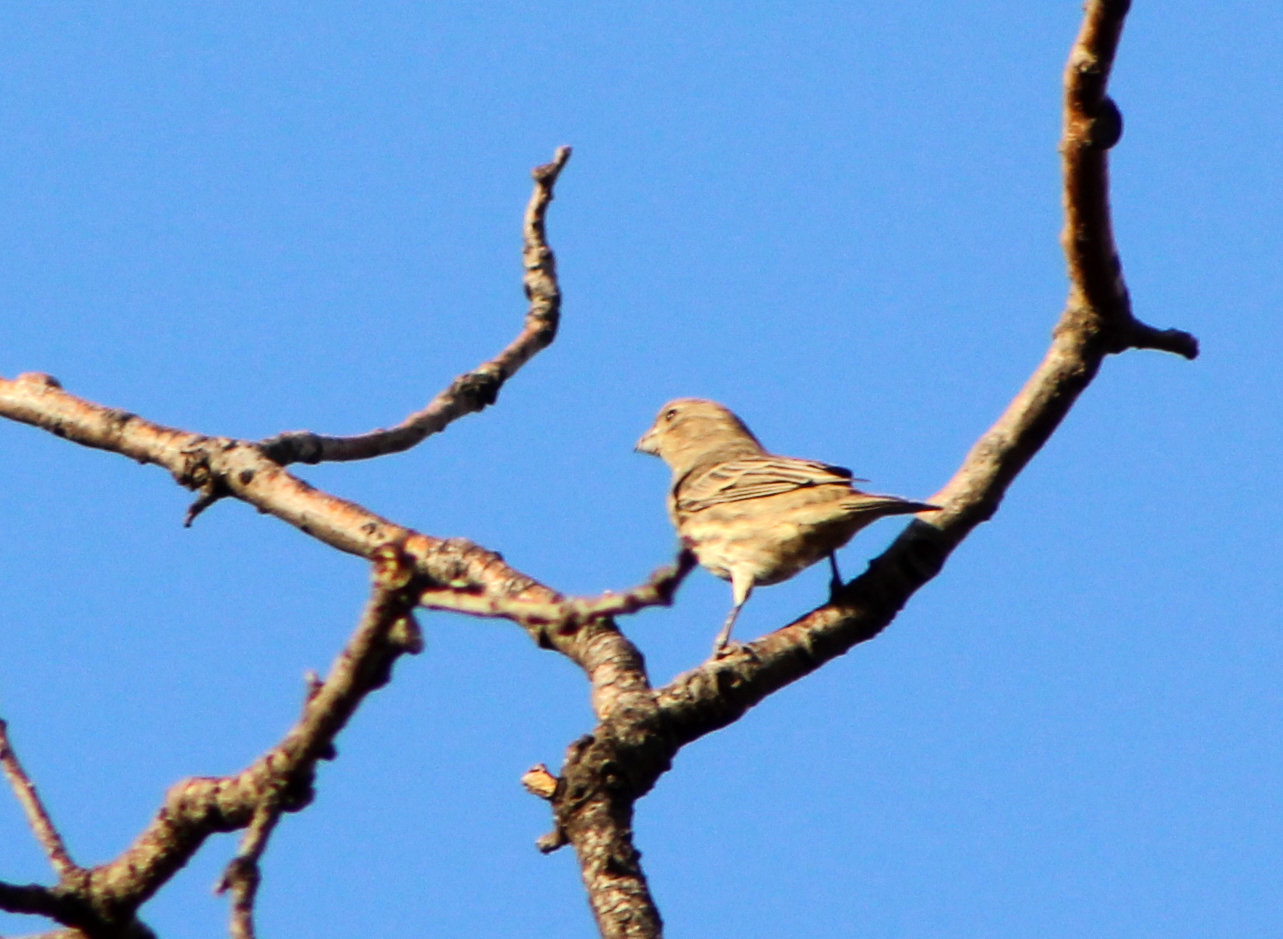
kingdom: Animalia
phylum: Chordata
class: Aves
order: Passeriformes
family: Fringillidae
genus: Haemorhous
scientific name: Haemorhous mexicanus
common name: House finch
